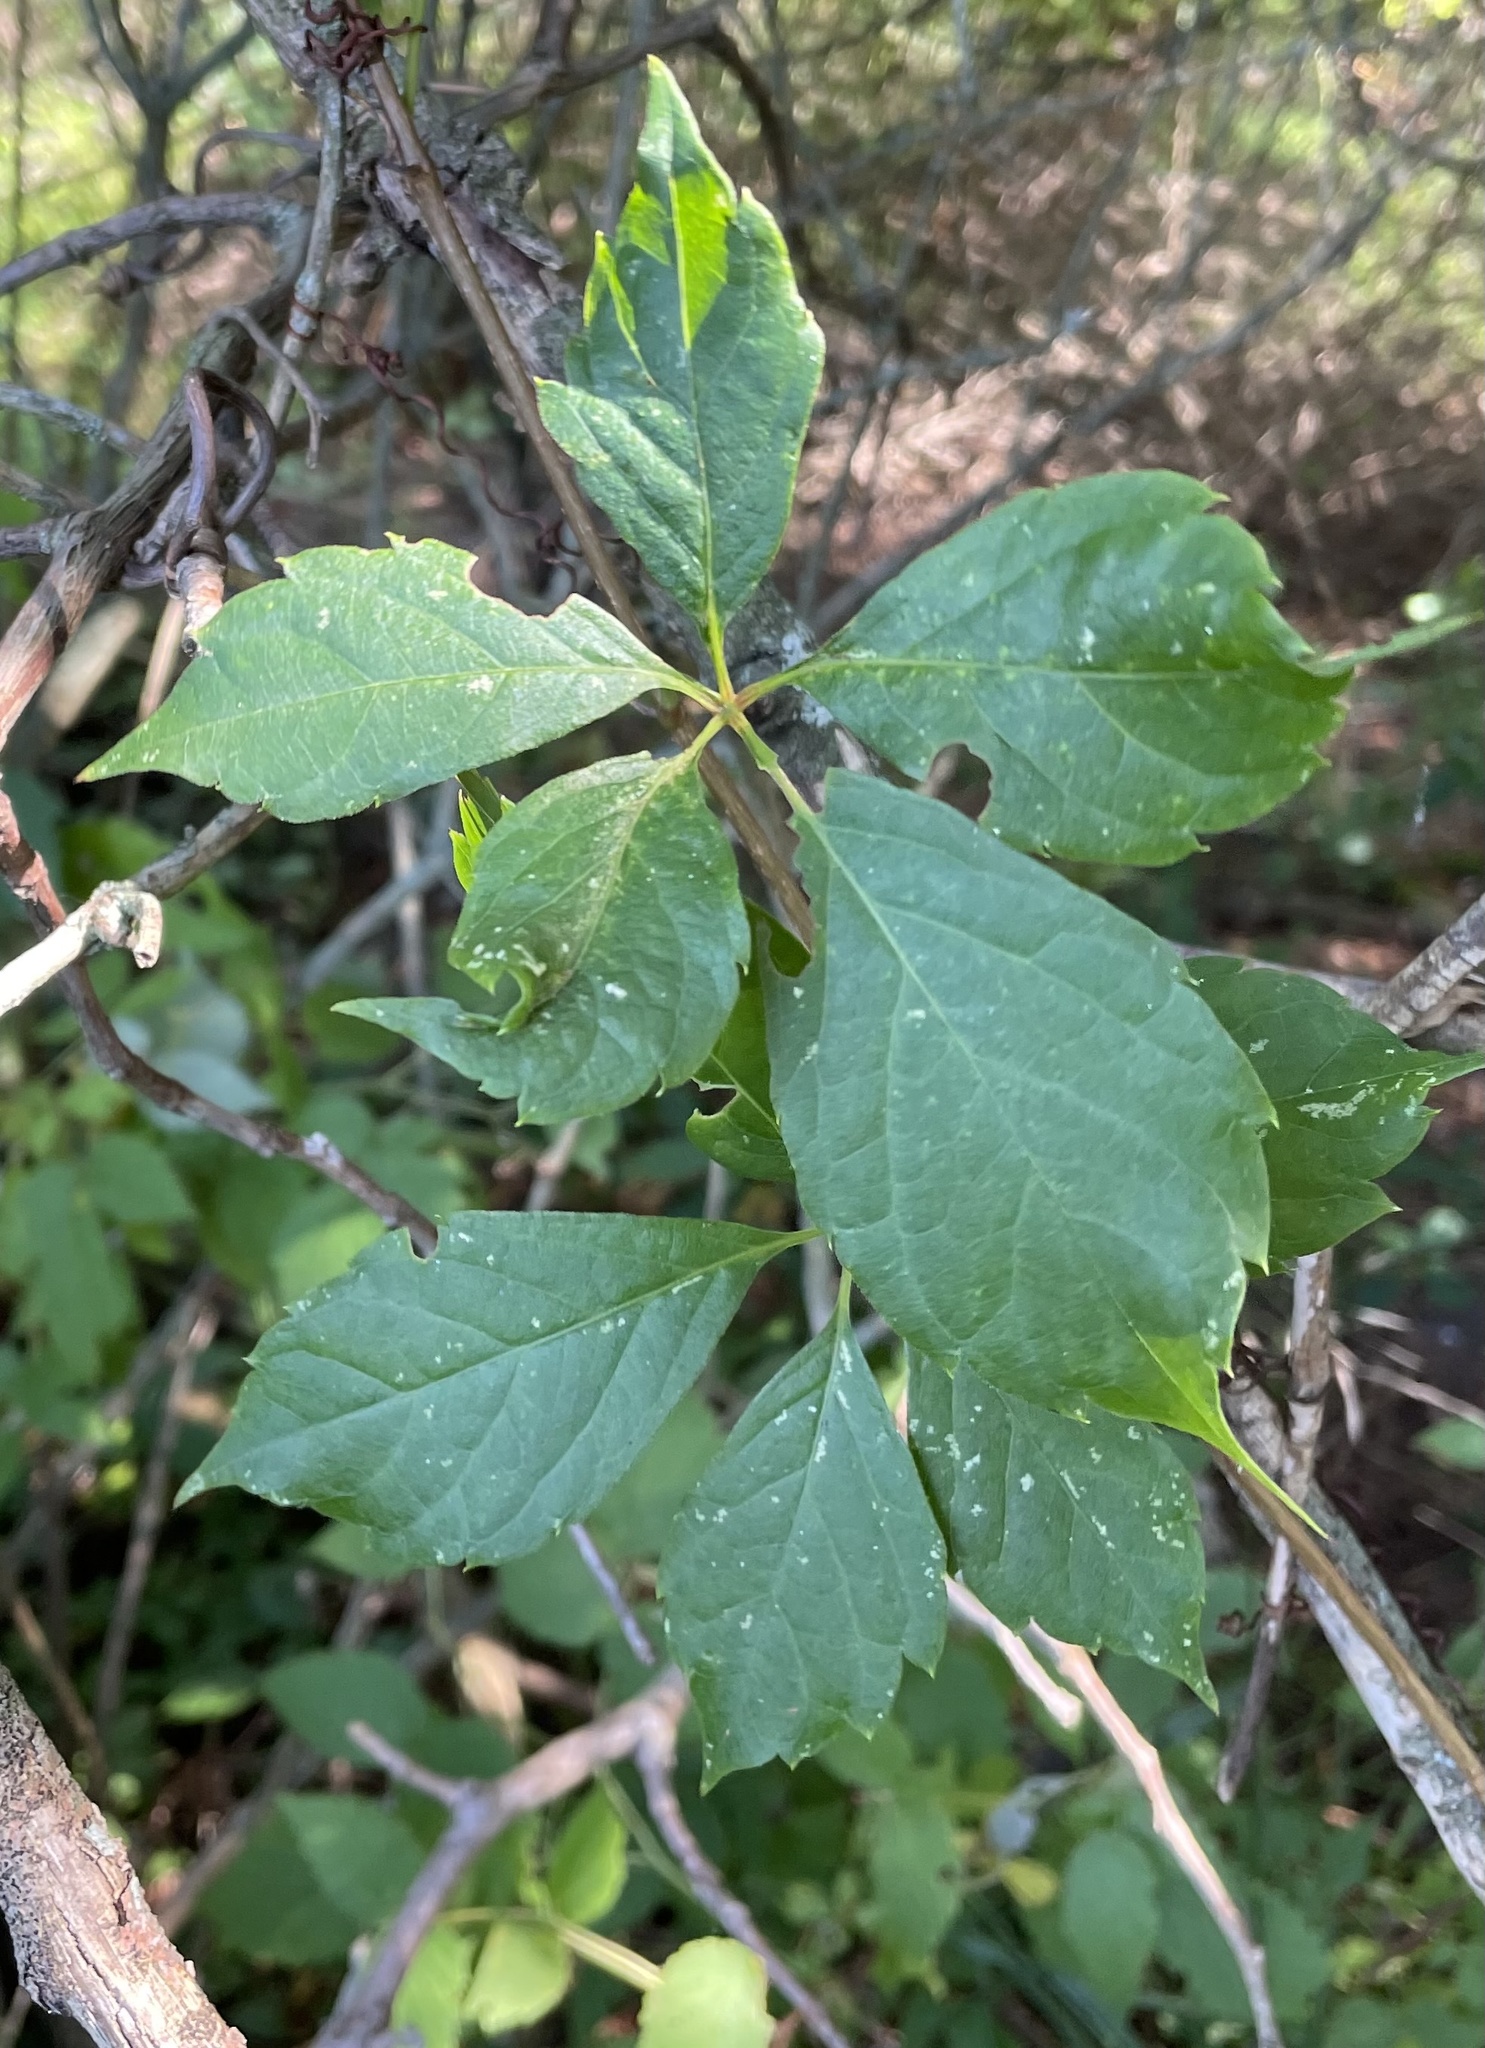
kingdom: Plantae
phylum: Tracheophyta
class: Magnoliopsida
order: Vitales
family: Vitaceae
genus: Parthenocissus
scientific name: Parthenocissus quinquefolia
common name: Virginia-creeper
